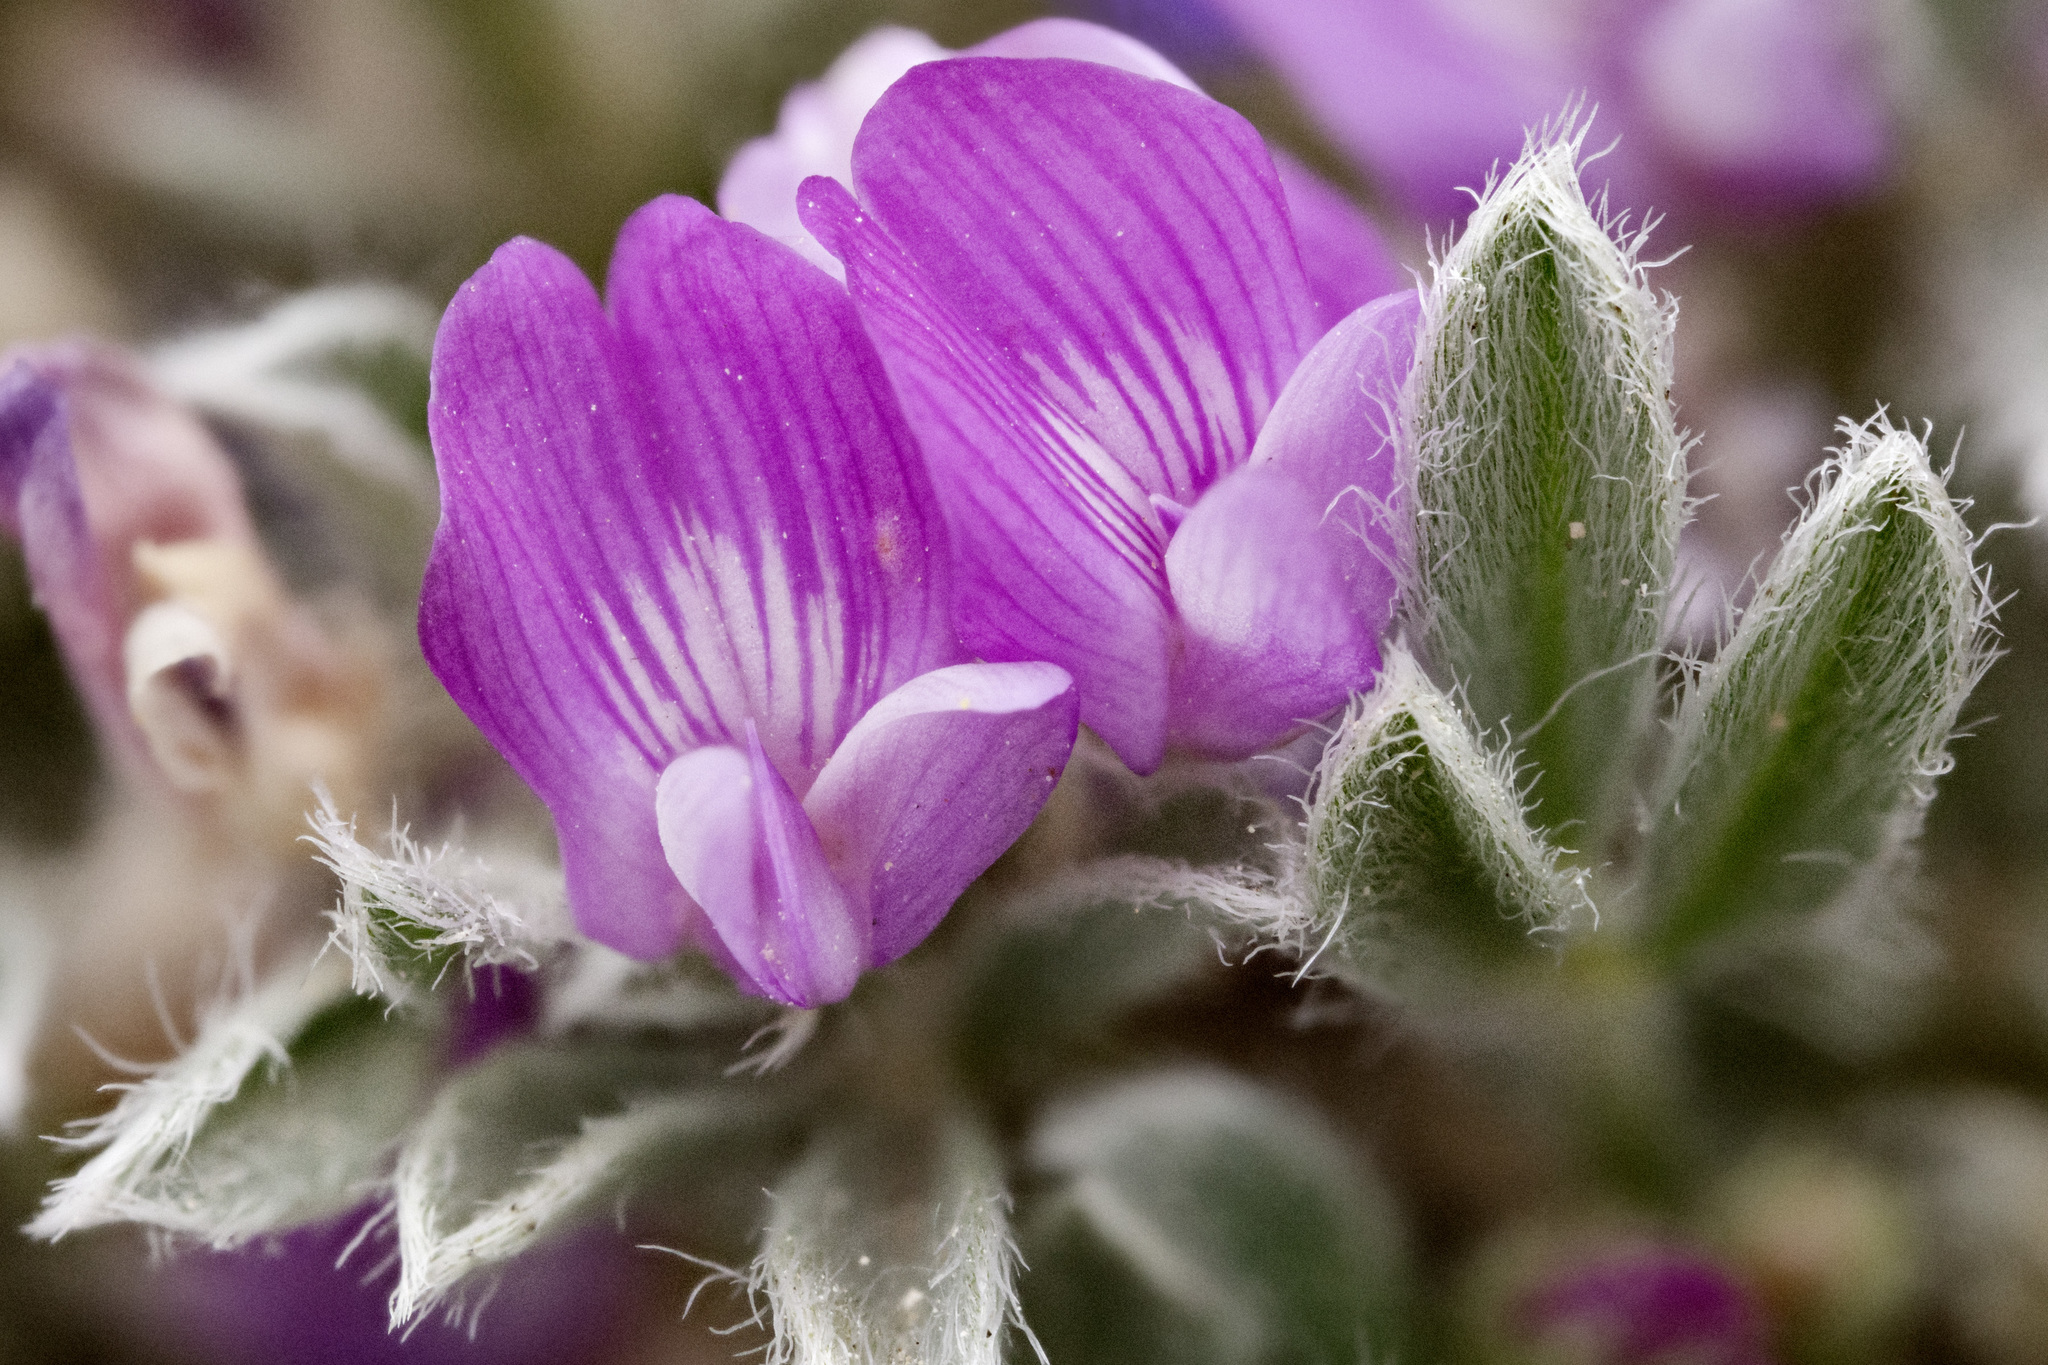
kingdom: Plantae
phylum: Tracheophyta
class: Magnoliopsida
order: Fabales
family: Fabaceae
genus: Astragalus
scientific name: Astragalus sericoleucus
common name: Silky orophaca
